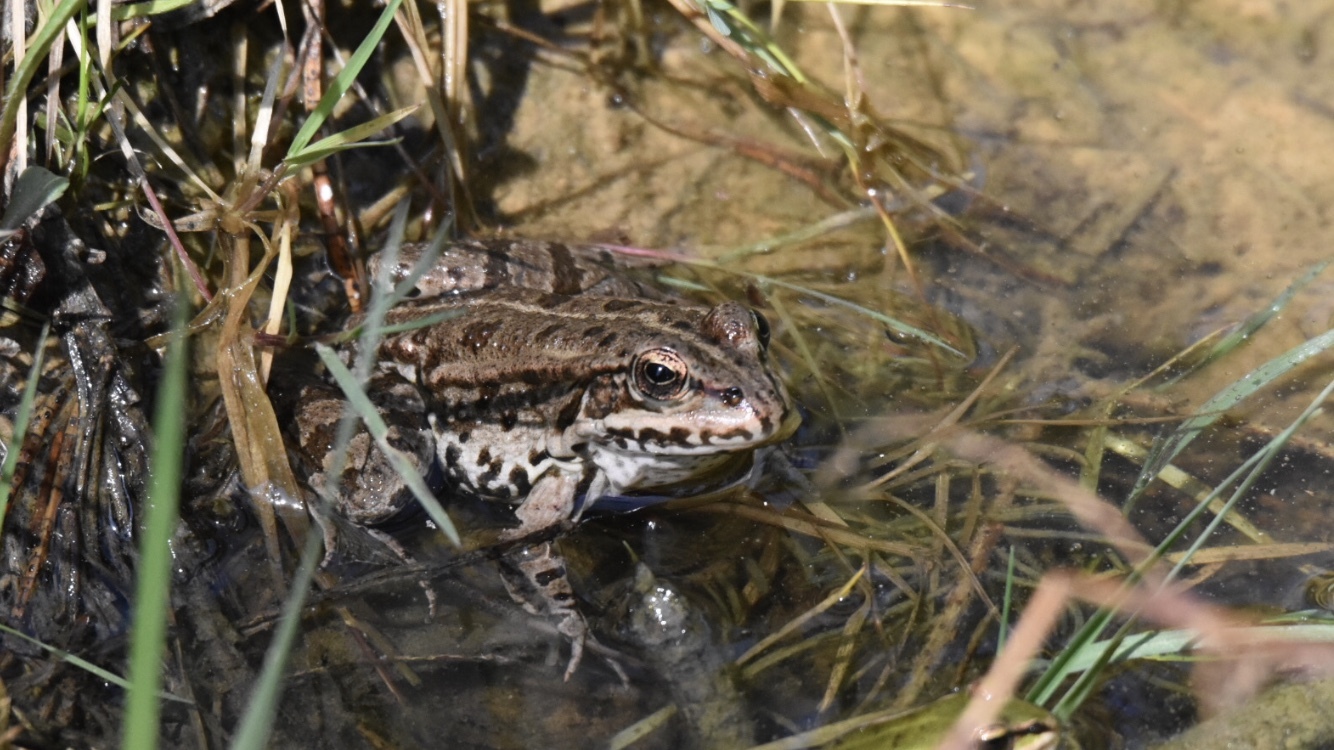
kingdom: Animalia
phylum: Chordata
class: Amphibia
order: Anura
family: Ranidae
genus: Pelophylax
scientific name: Pelophylax
